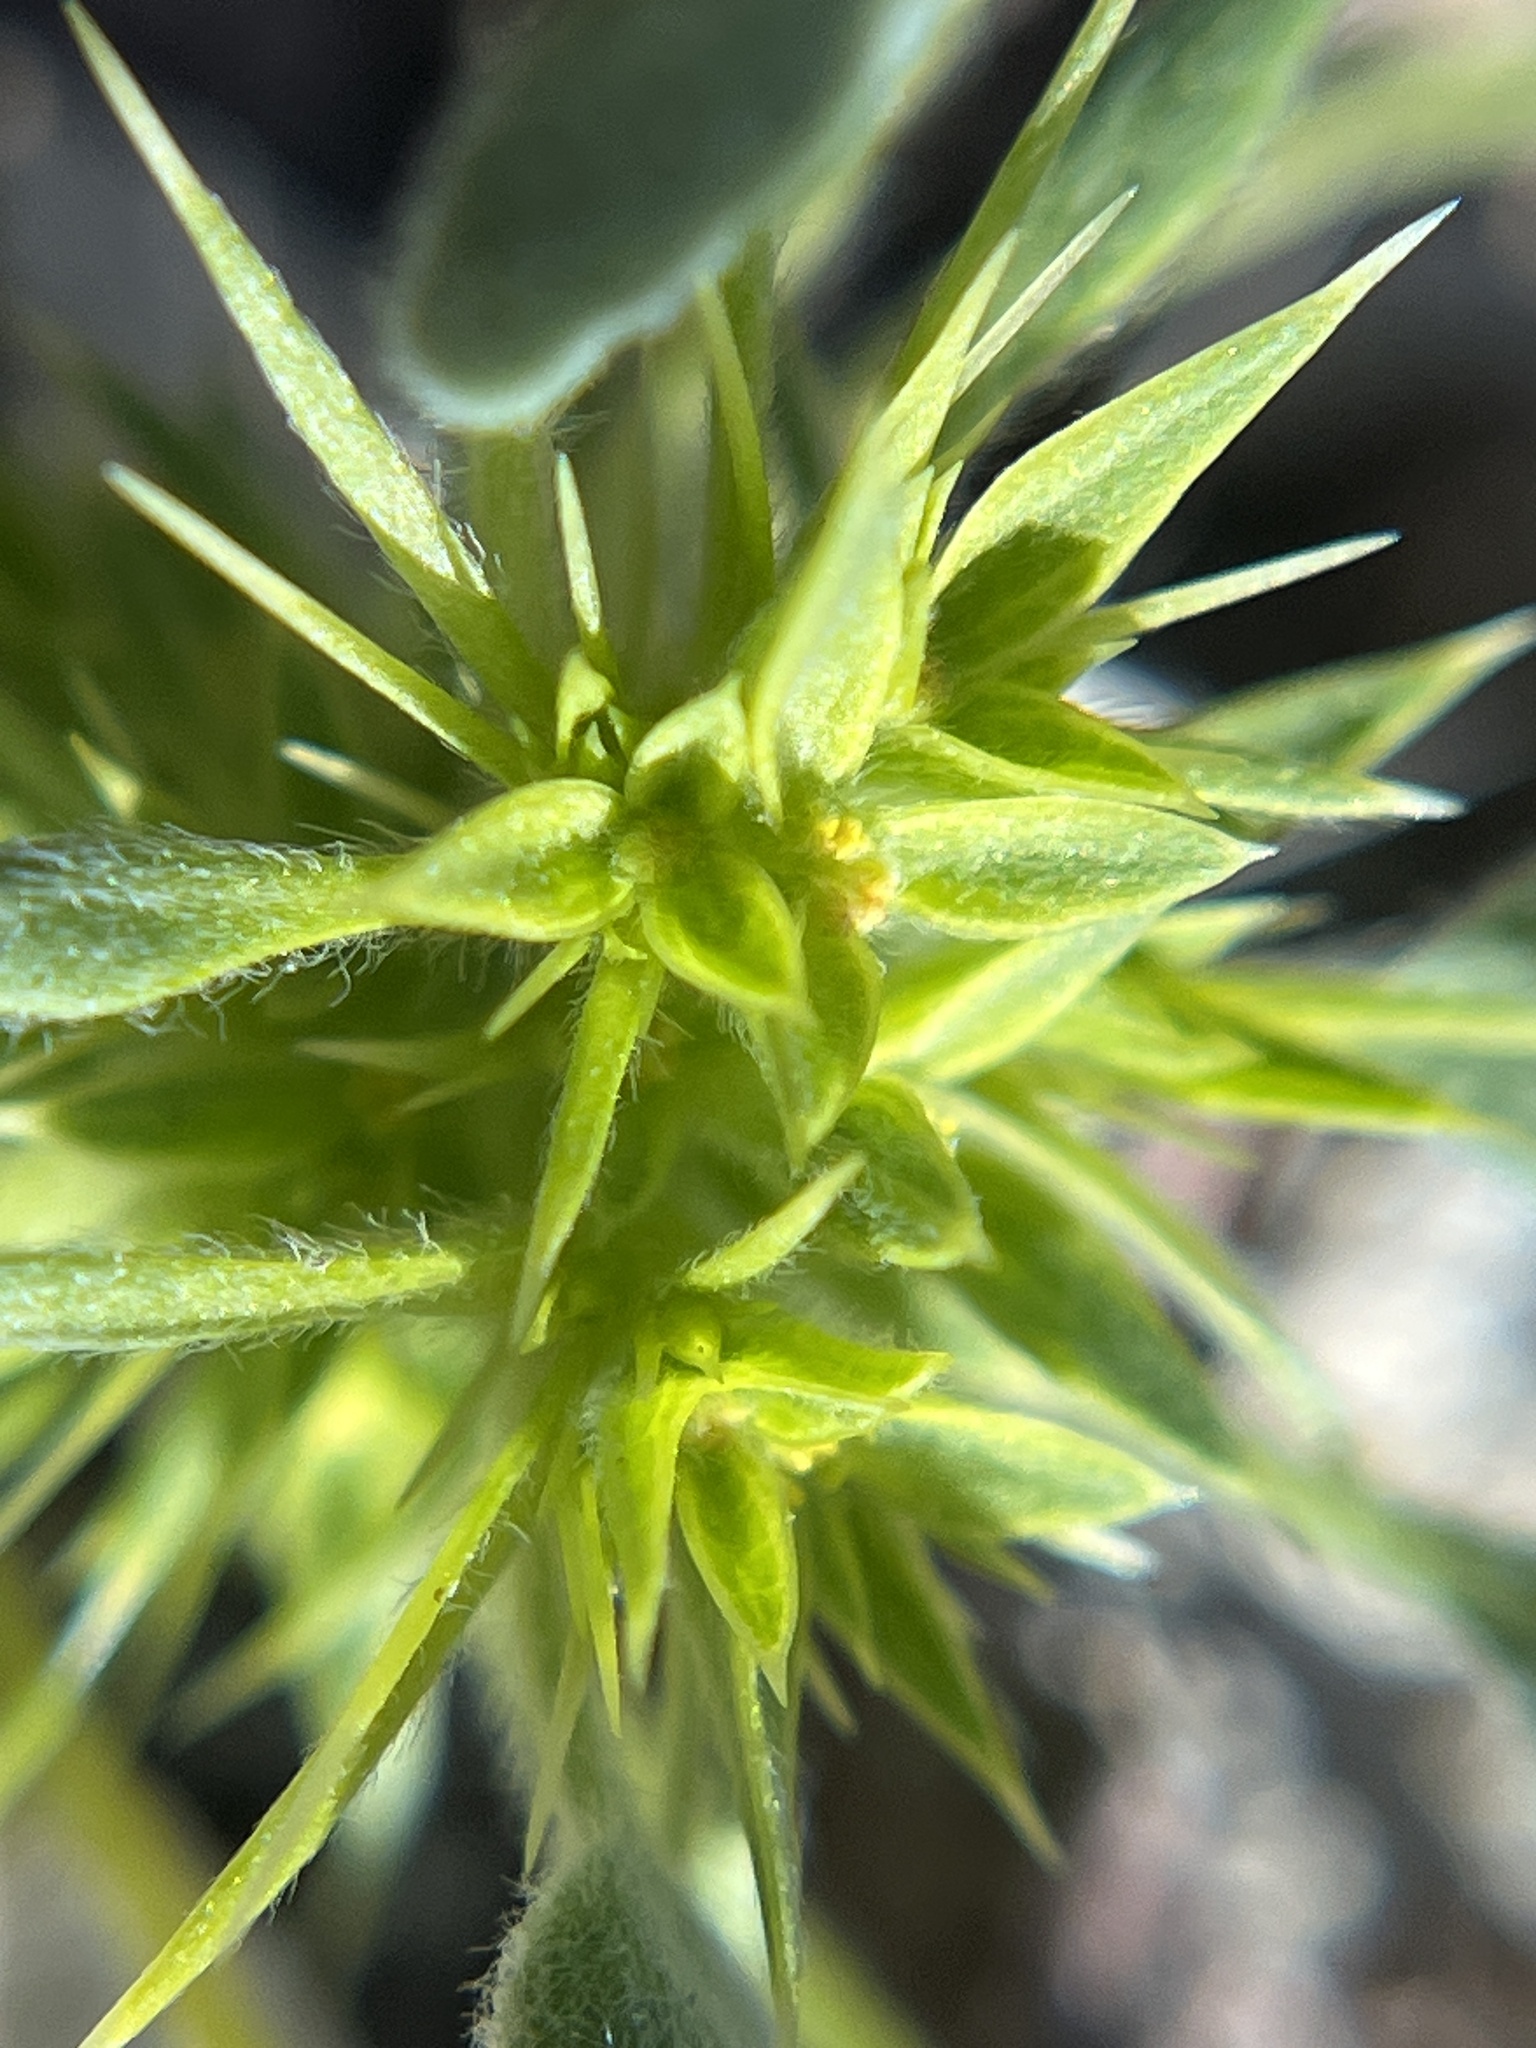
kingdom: Plantae
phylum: Tracheophyta
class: Magnoliopsida
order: Caryophyllales
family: Polygonaceae
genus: Chorizanthe
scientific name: Chorizanthe rigida
